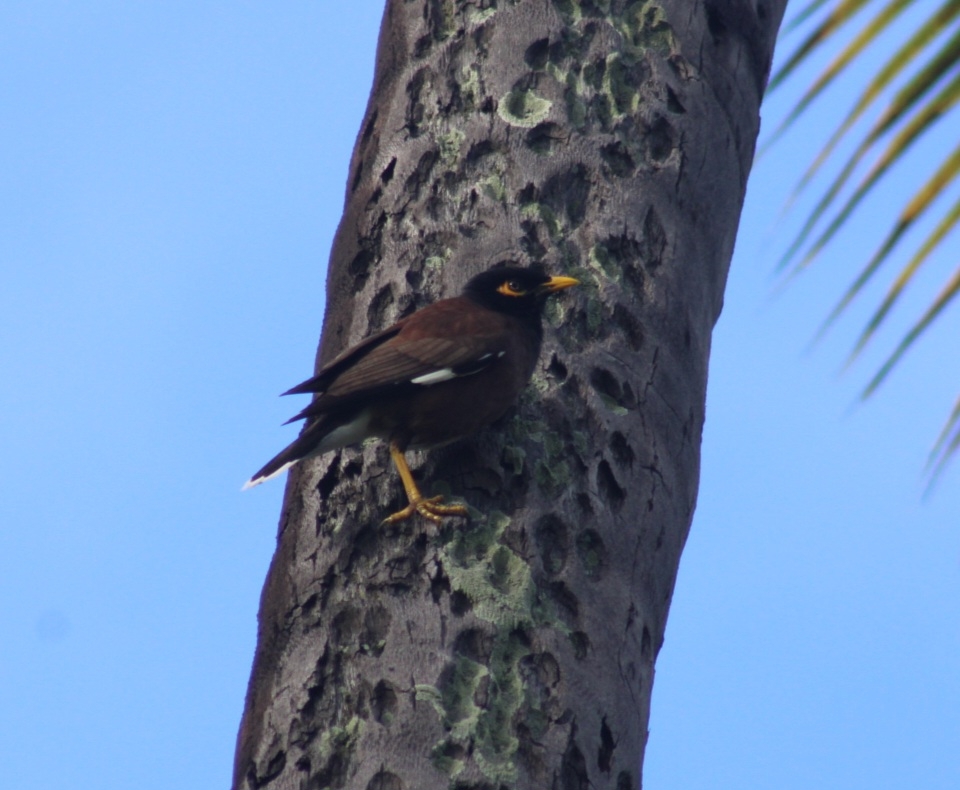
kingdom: Animalia
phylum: Chordata
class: Aves
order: Passeriformes
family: Sturnidae
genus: Acridotheres
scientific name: Acridotheres tristis
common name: Common myna
